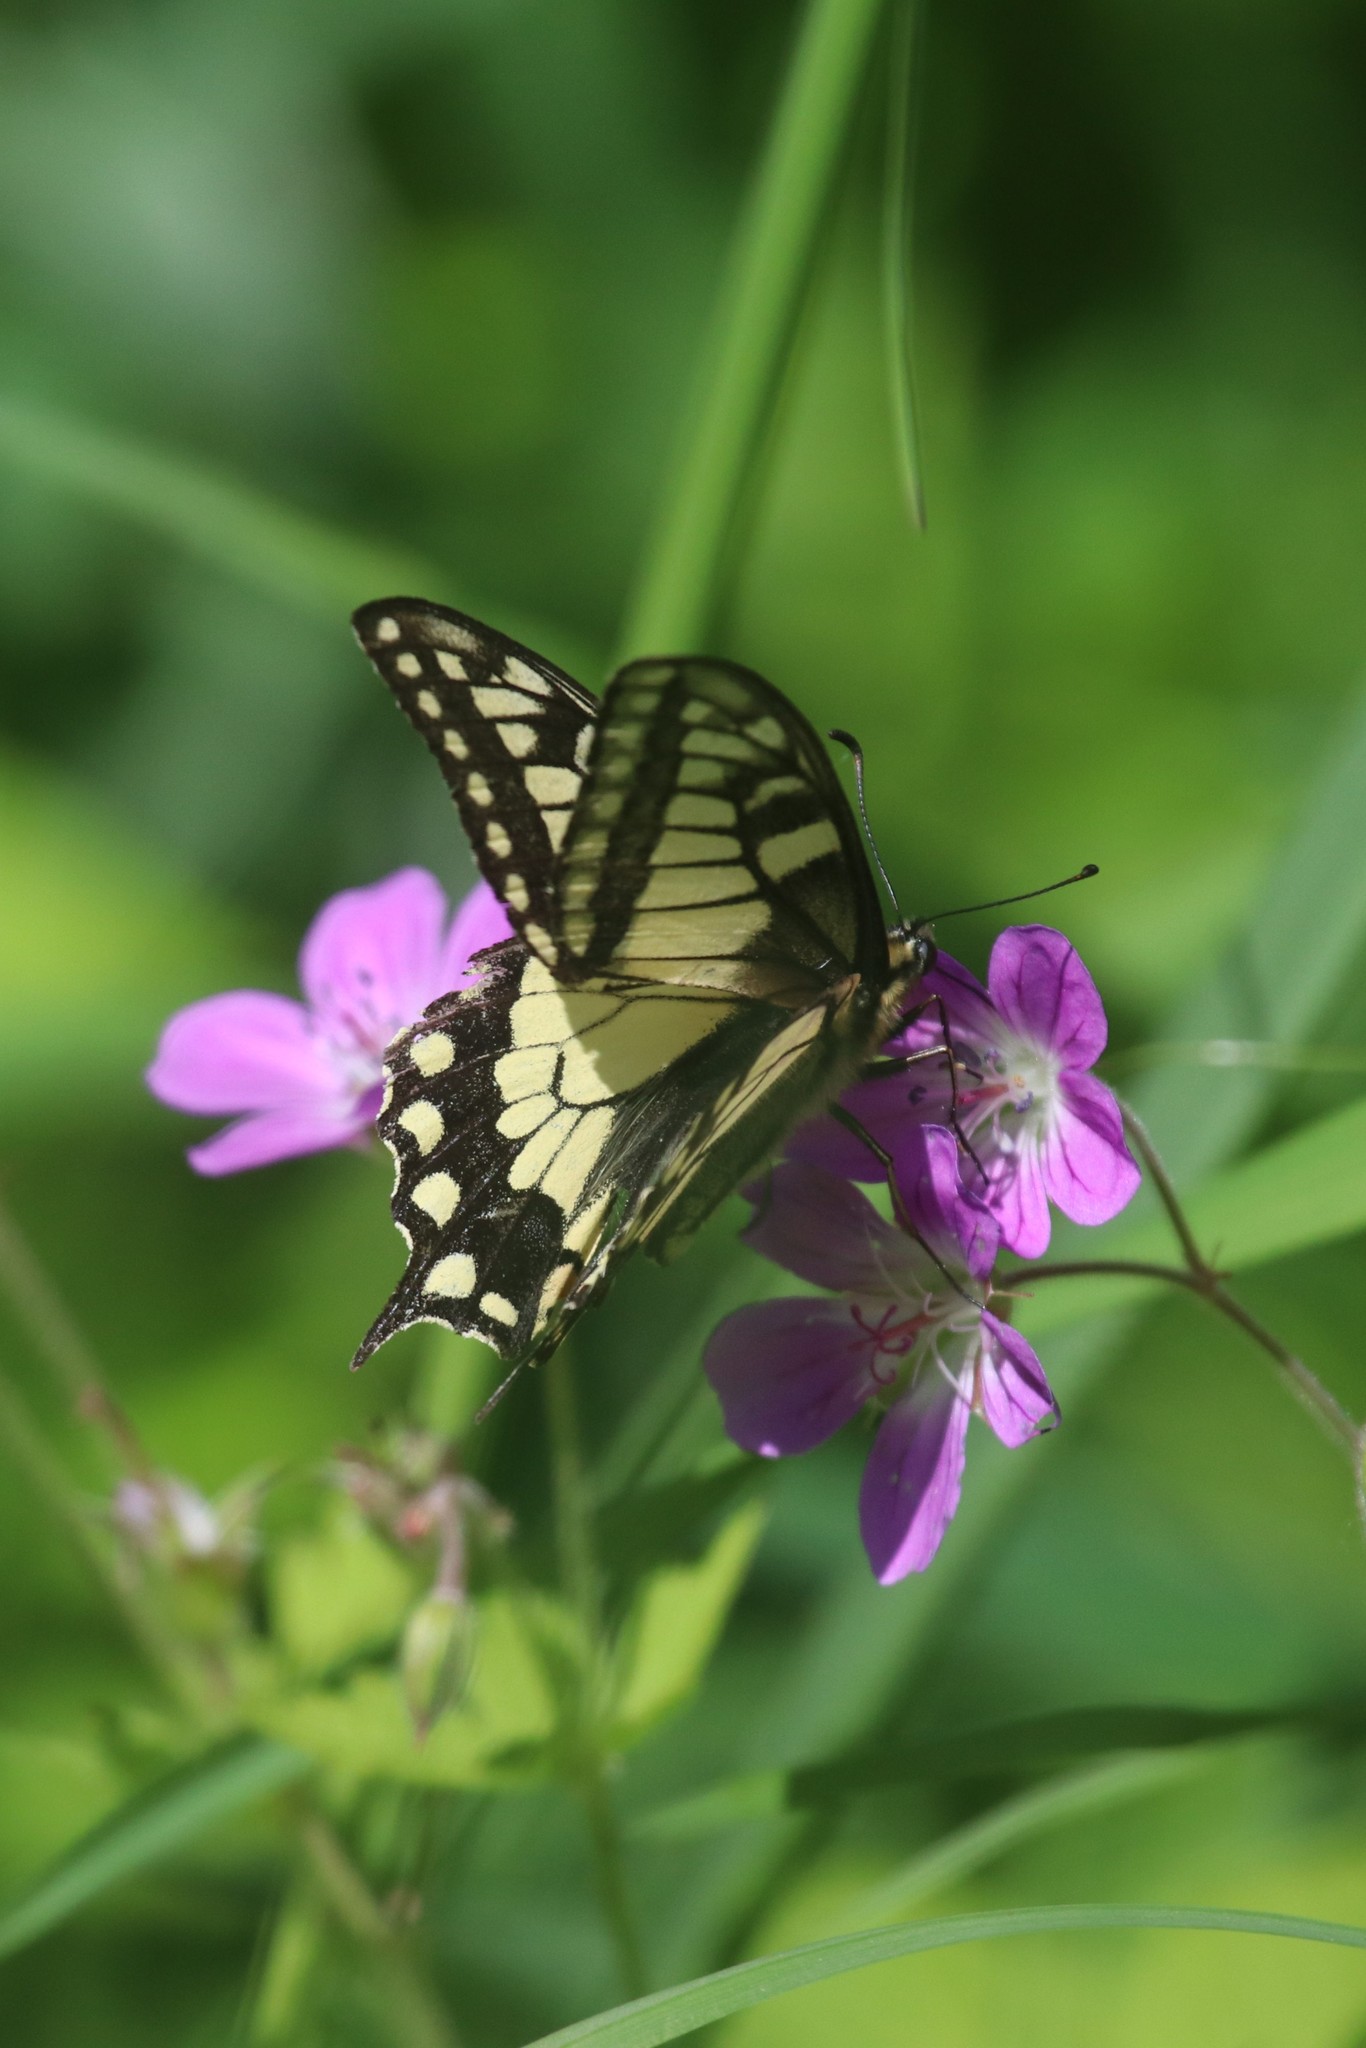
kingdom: Animalia
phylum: Arthropoda
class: Insecta
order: Lepidoptera
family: Papilionidae
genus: Papilio
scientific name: Papilio machaon
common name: Swallowtail
